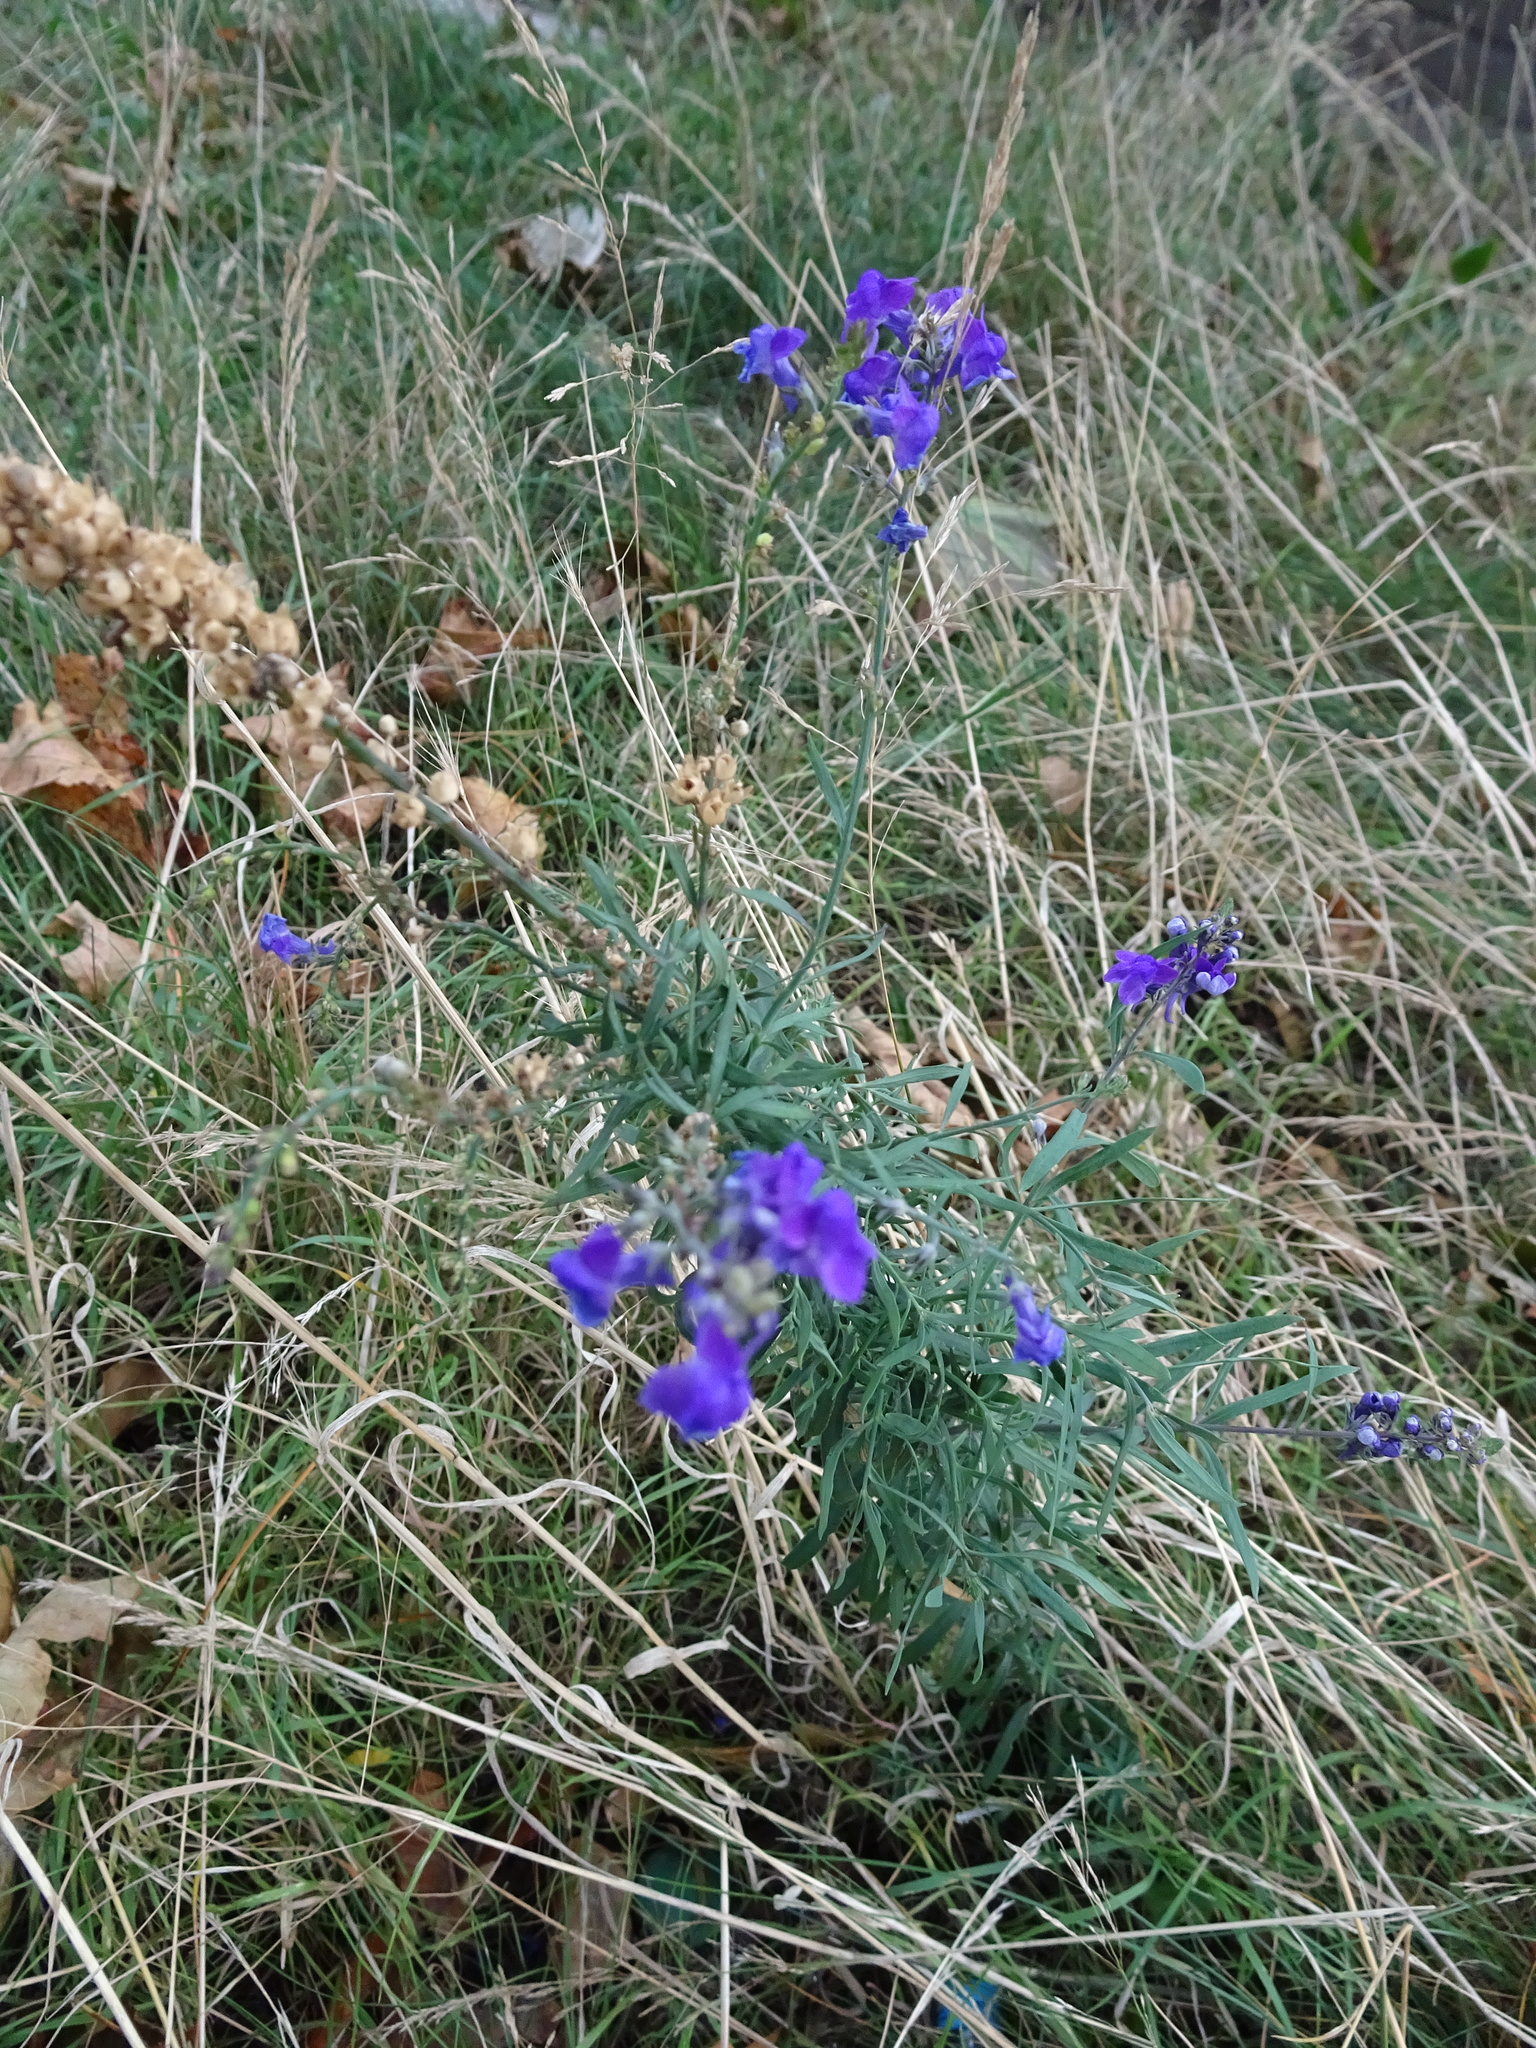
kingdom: Plantae
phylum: Tracheophyta
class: Magnoliopsida
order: Lamiales
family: Plantaginaceae
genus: Linaria
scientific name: Linaria purpurea
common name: Purple toadflax
